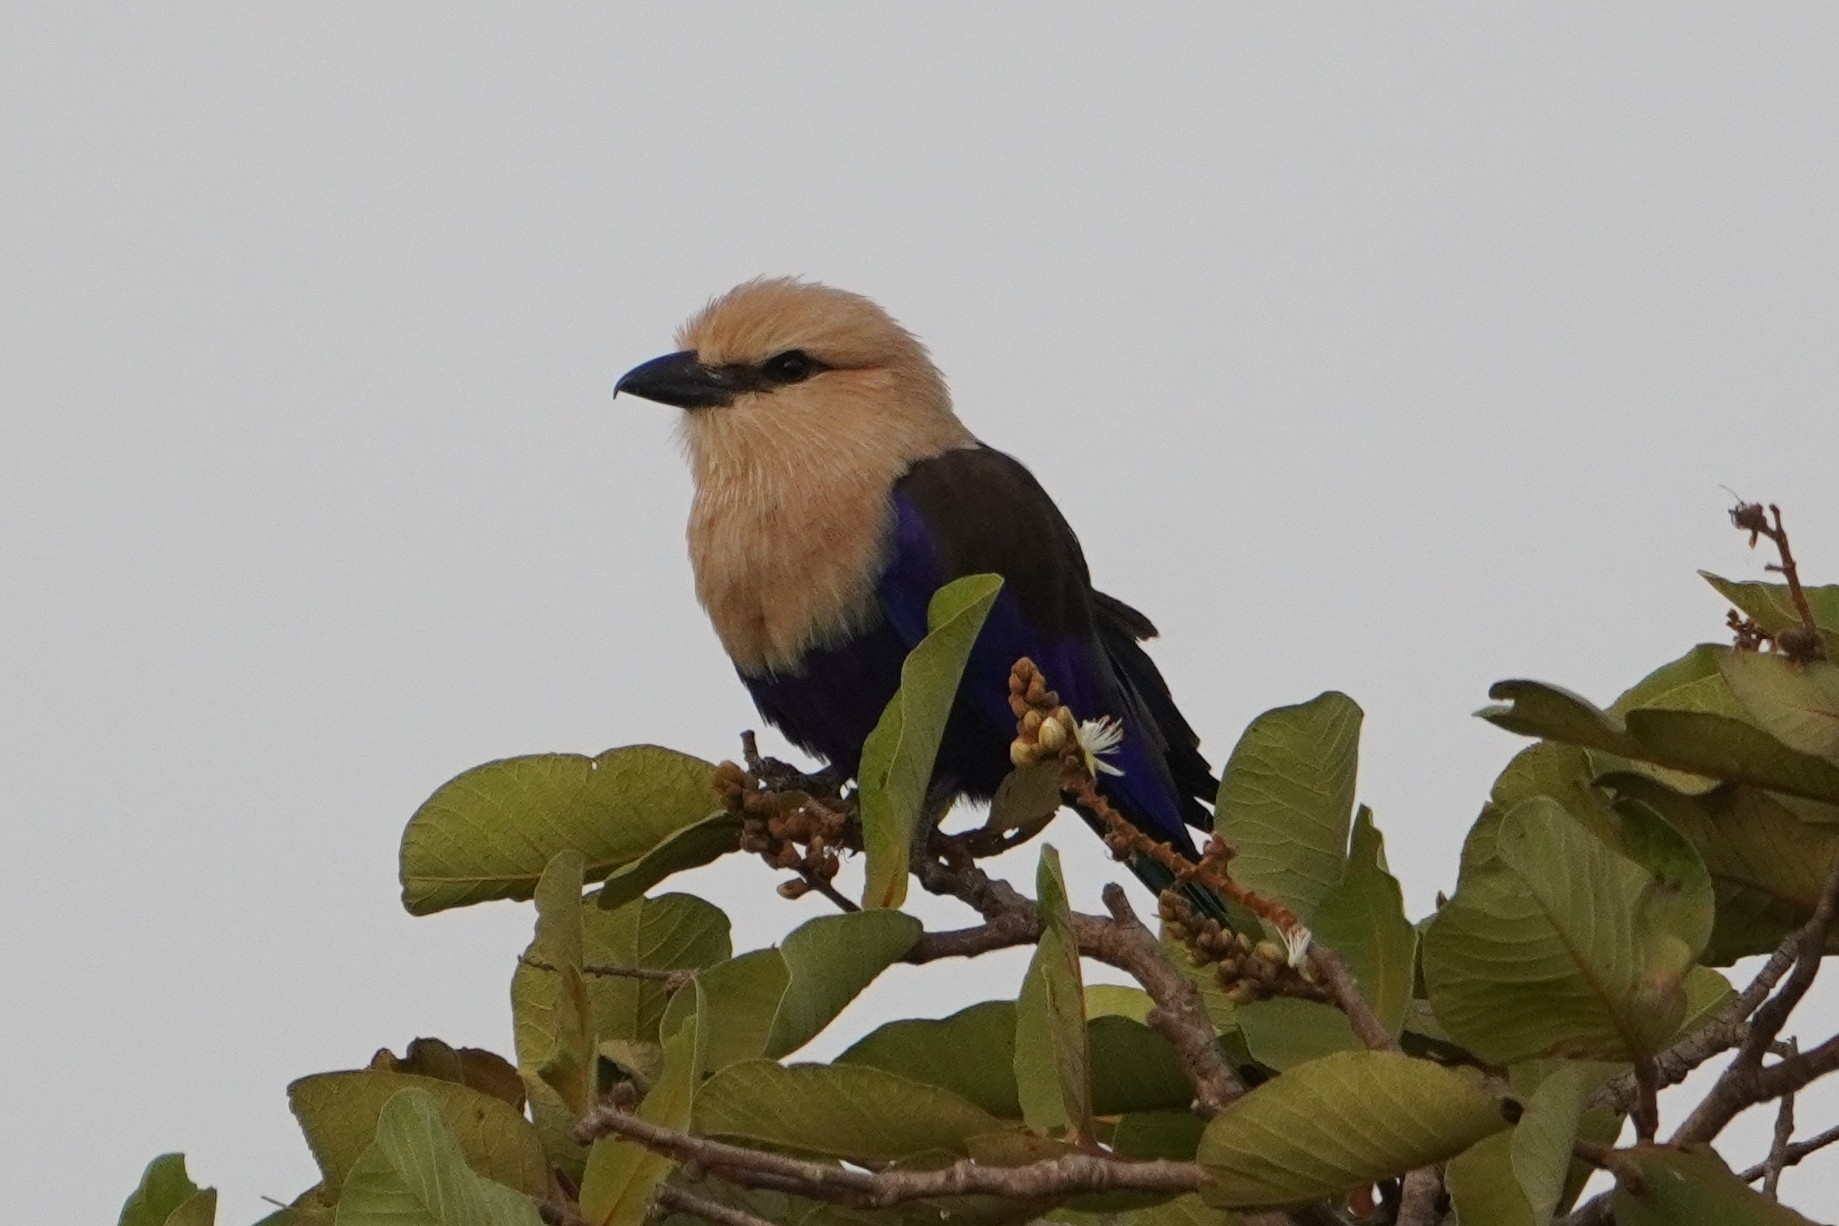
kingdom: Animalia
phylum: Chordata
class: Aves
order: Coraciiformes
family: Coraciidae
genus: Coracias
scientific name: Coracias cyanogaster
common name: Blue-bellied roller
